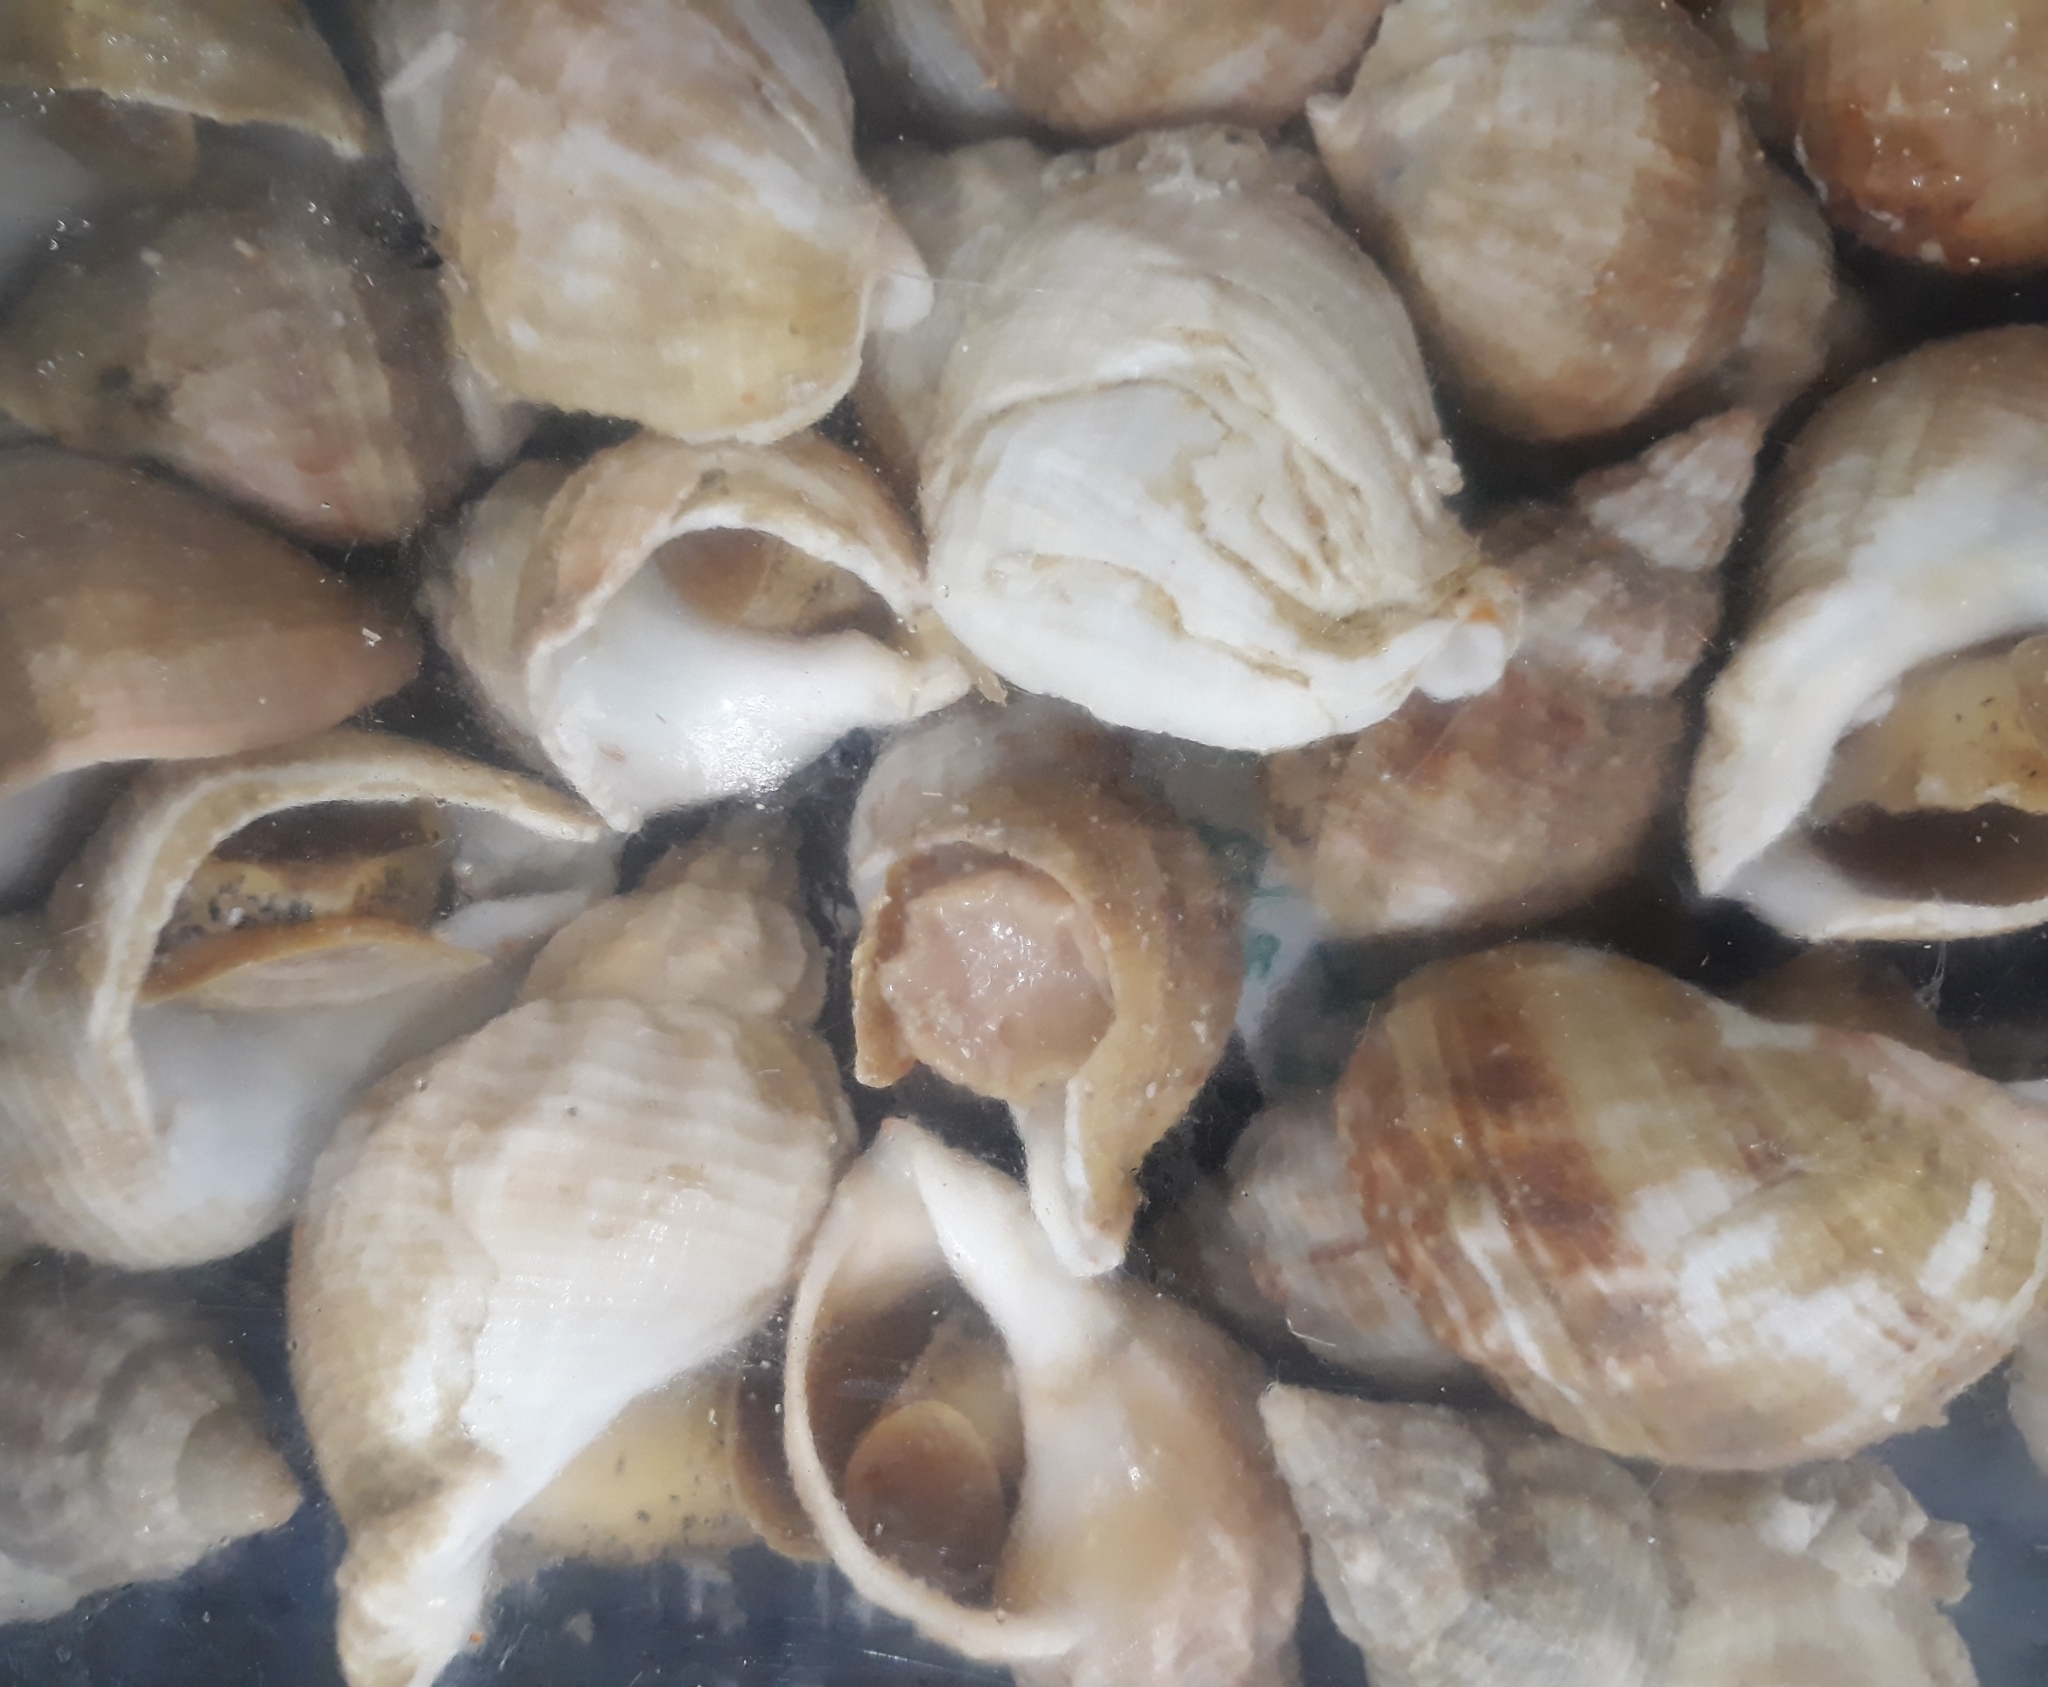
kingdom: Animalia
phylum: Mollusca
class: Gastropoda
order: Neogastropoda
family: Buccinidae
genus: Buccinum
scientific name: Buccinum undatum
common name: Common whelk
